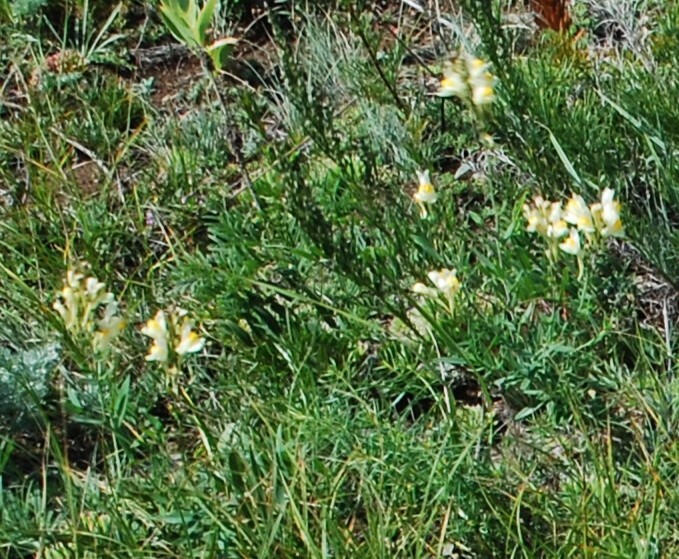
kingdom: Plantae
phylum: Tracheophyta
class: Magnoliopsida
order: Lamiales
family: Plantaginaceae
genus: Linaria
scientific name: Linaria acutiloba
